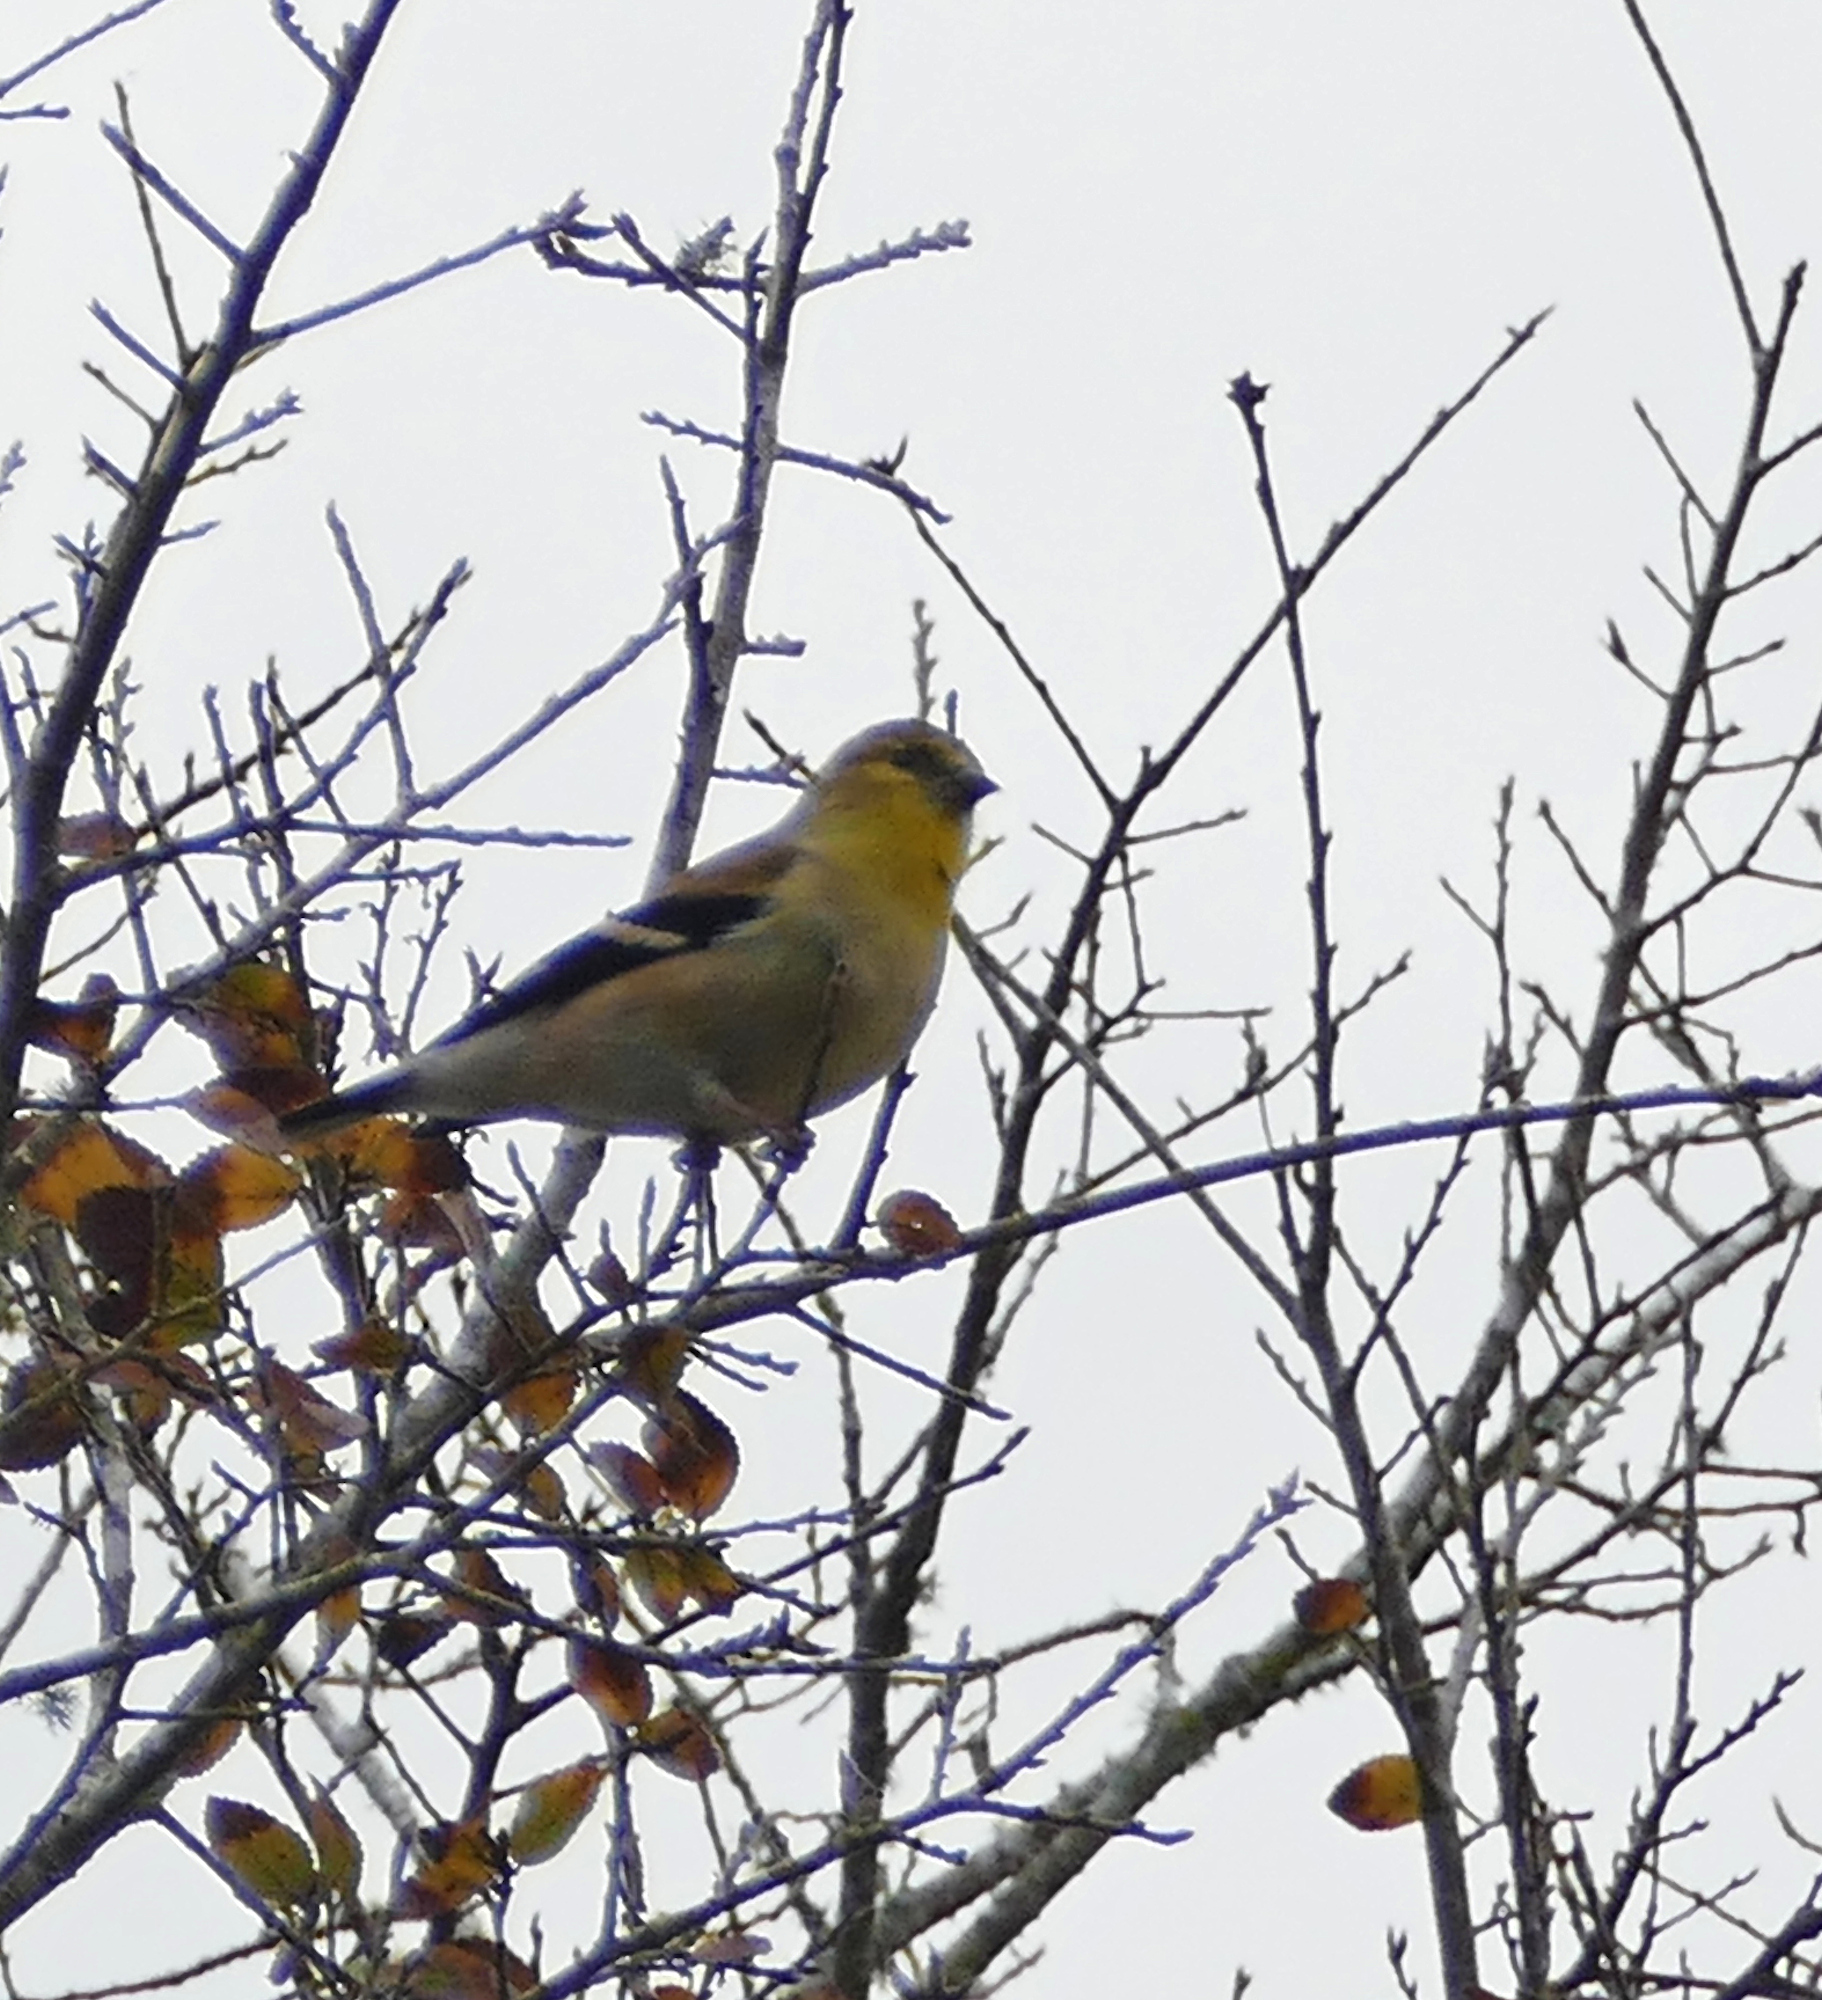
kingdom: Animalia
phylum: Chordata
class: Aves
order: Passeriformes
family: Fringillidae
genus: Spinus
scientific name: Spinus tristis
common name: American goldfinch
